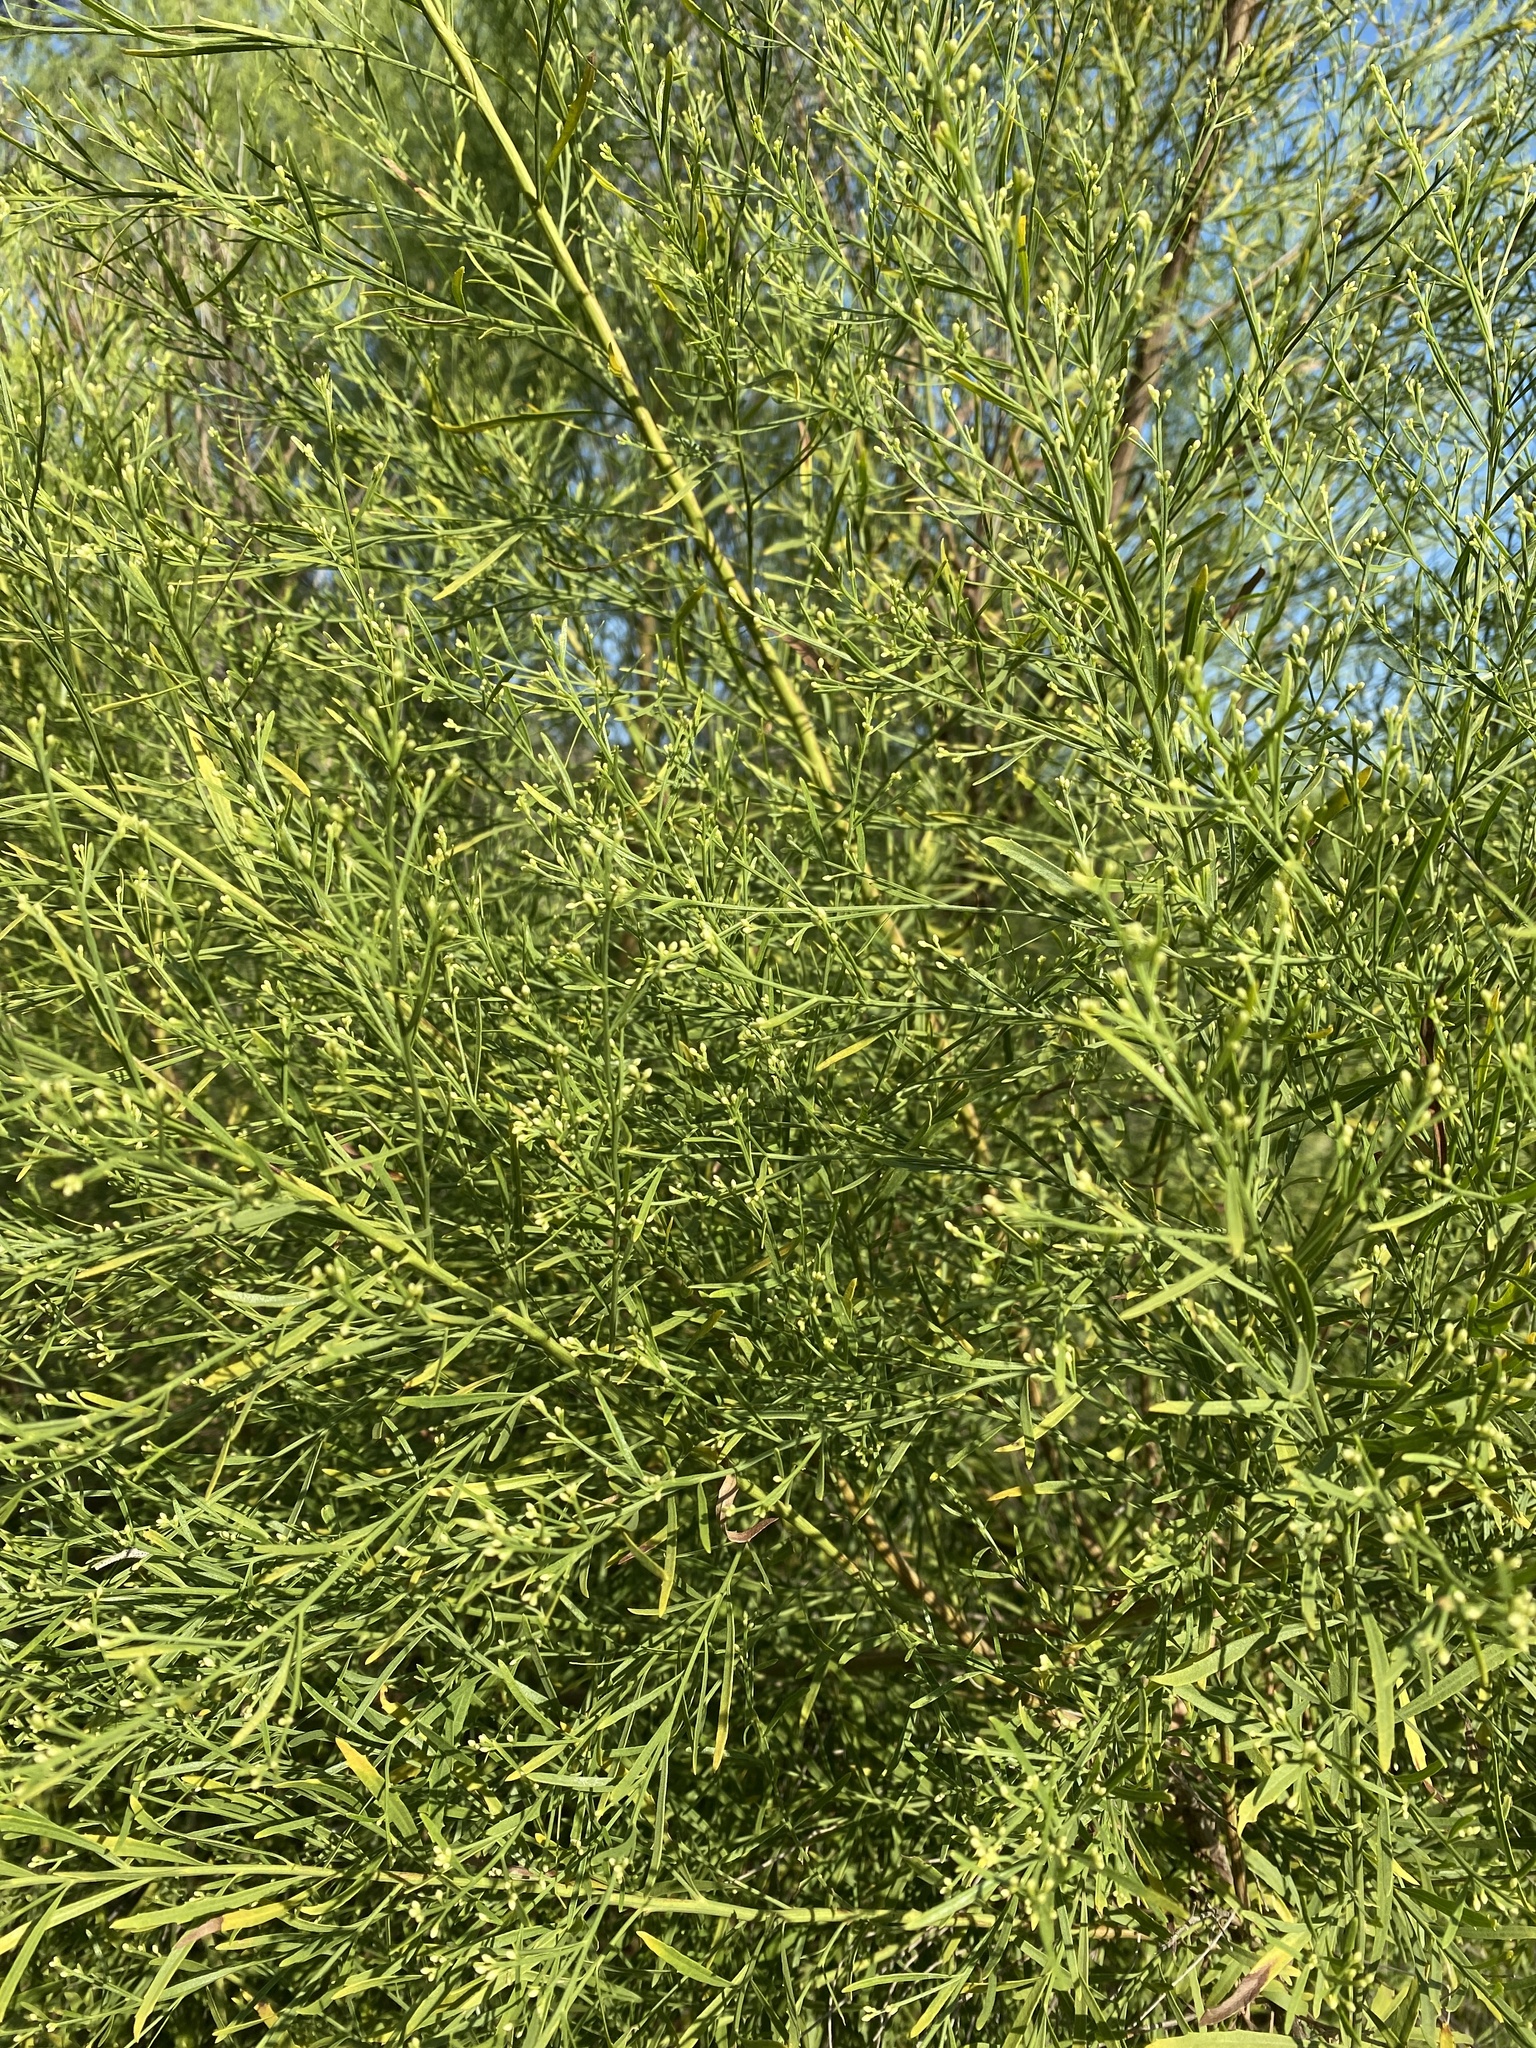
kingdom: Plantae
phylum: Tracheophyta
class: Magnoliopsida
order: Asterales
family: Asteraceae
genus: Baccharis
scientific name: Baccharis neglecta
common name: Roosevelt-weed
